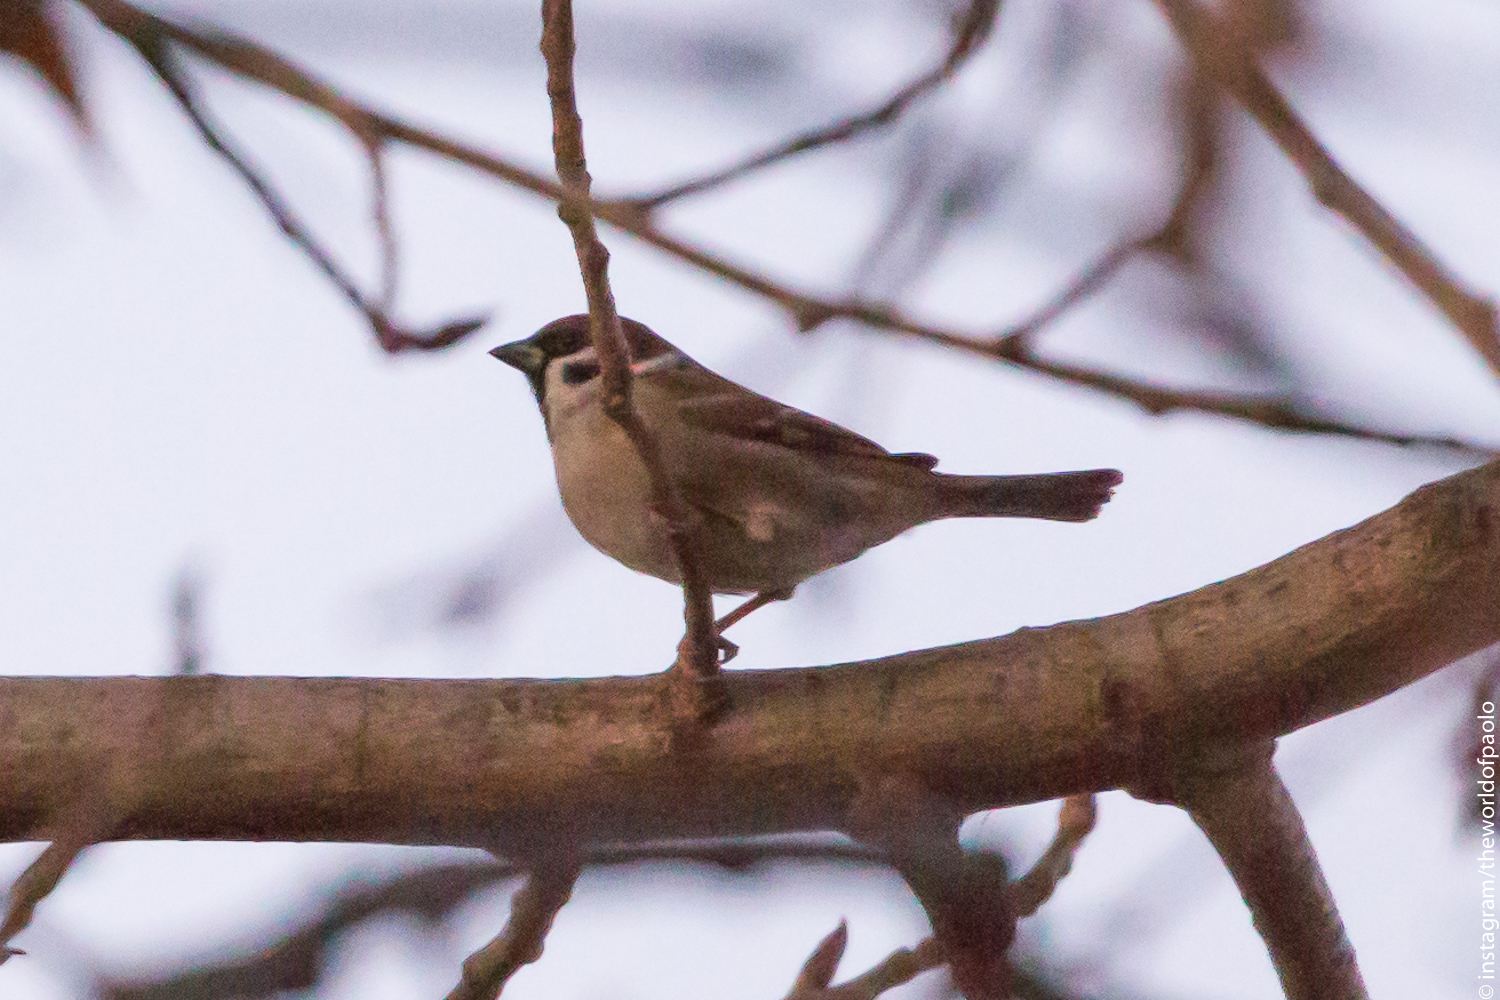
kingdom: Animalia
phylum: Chordata
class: Aves
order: Passeriformes
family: Passeridae
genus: Passer
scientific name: Passer montanus
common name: Eurasian tree sparrow
